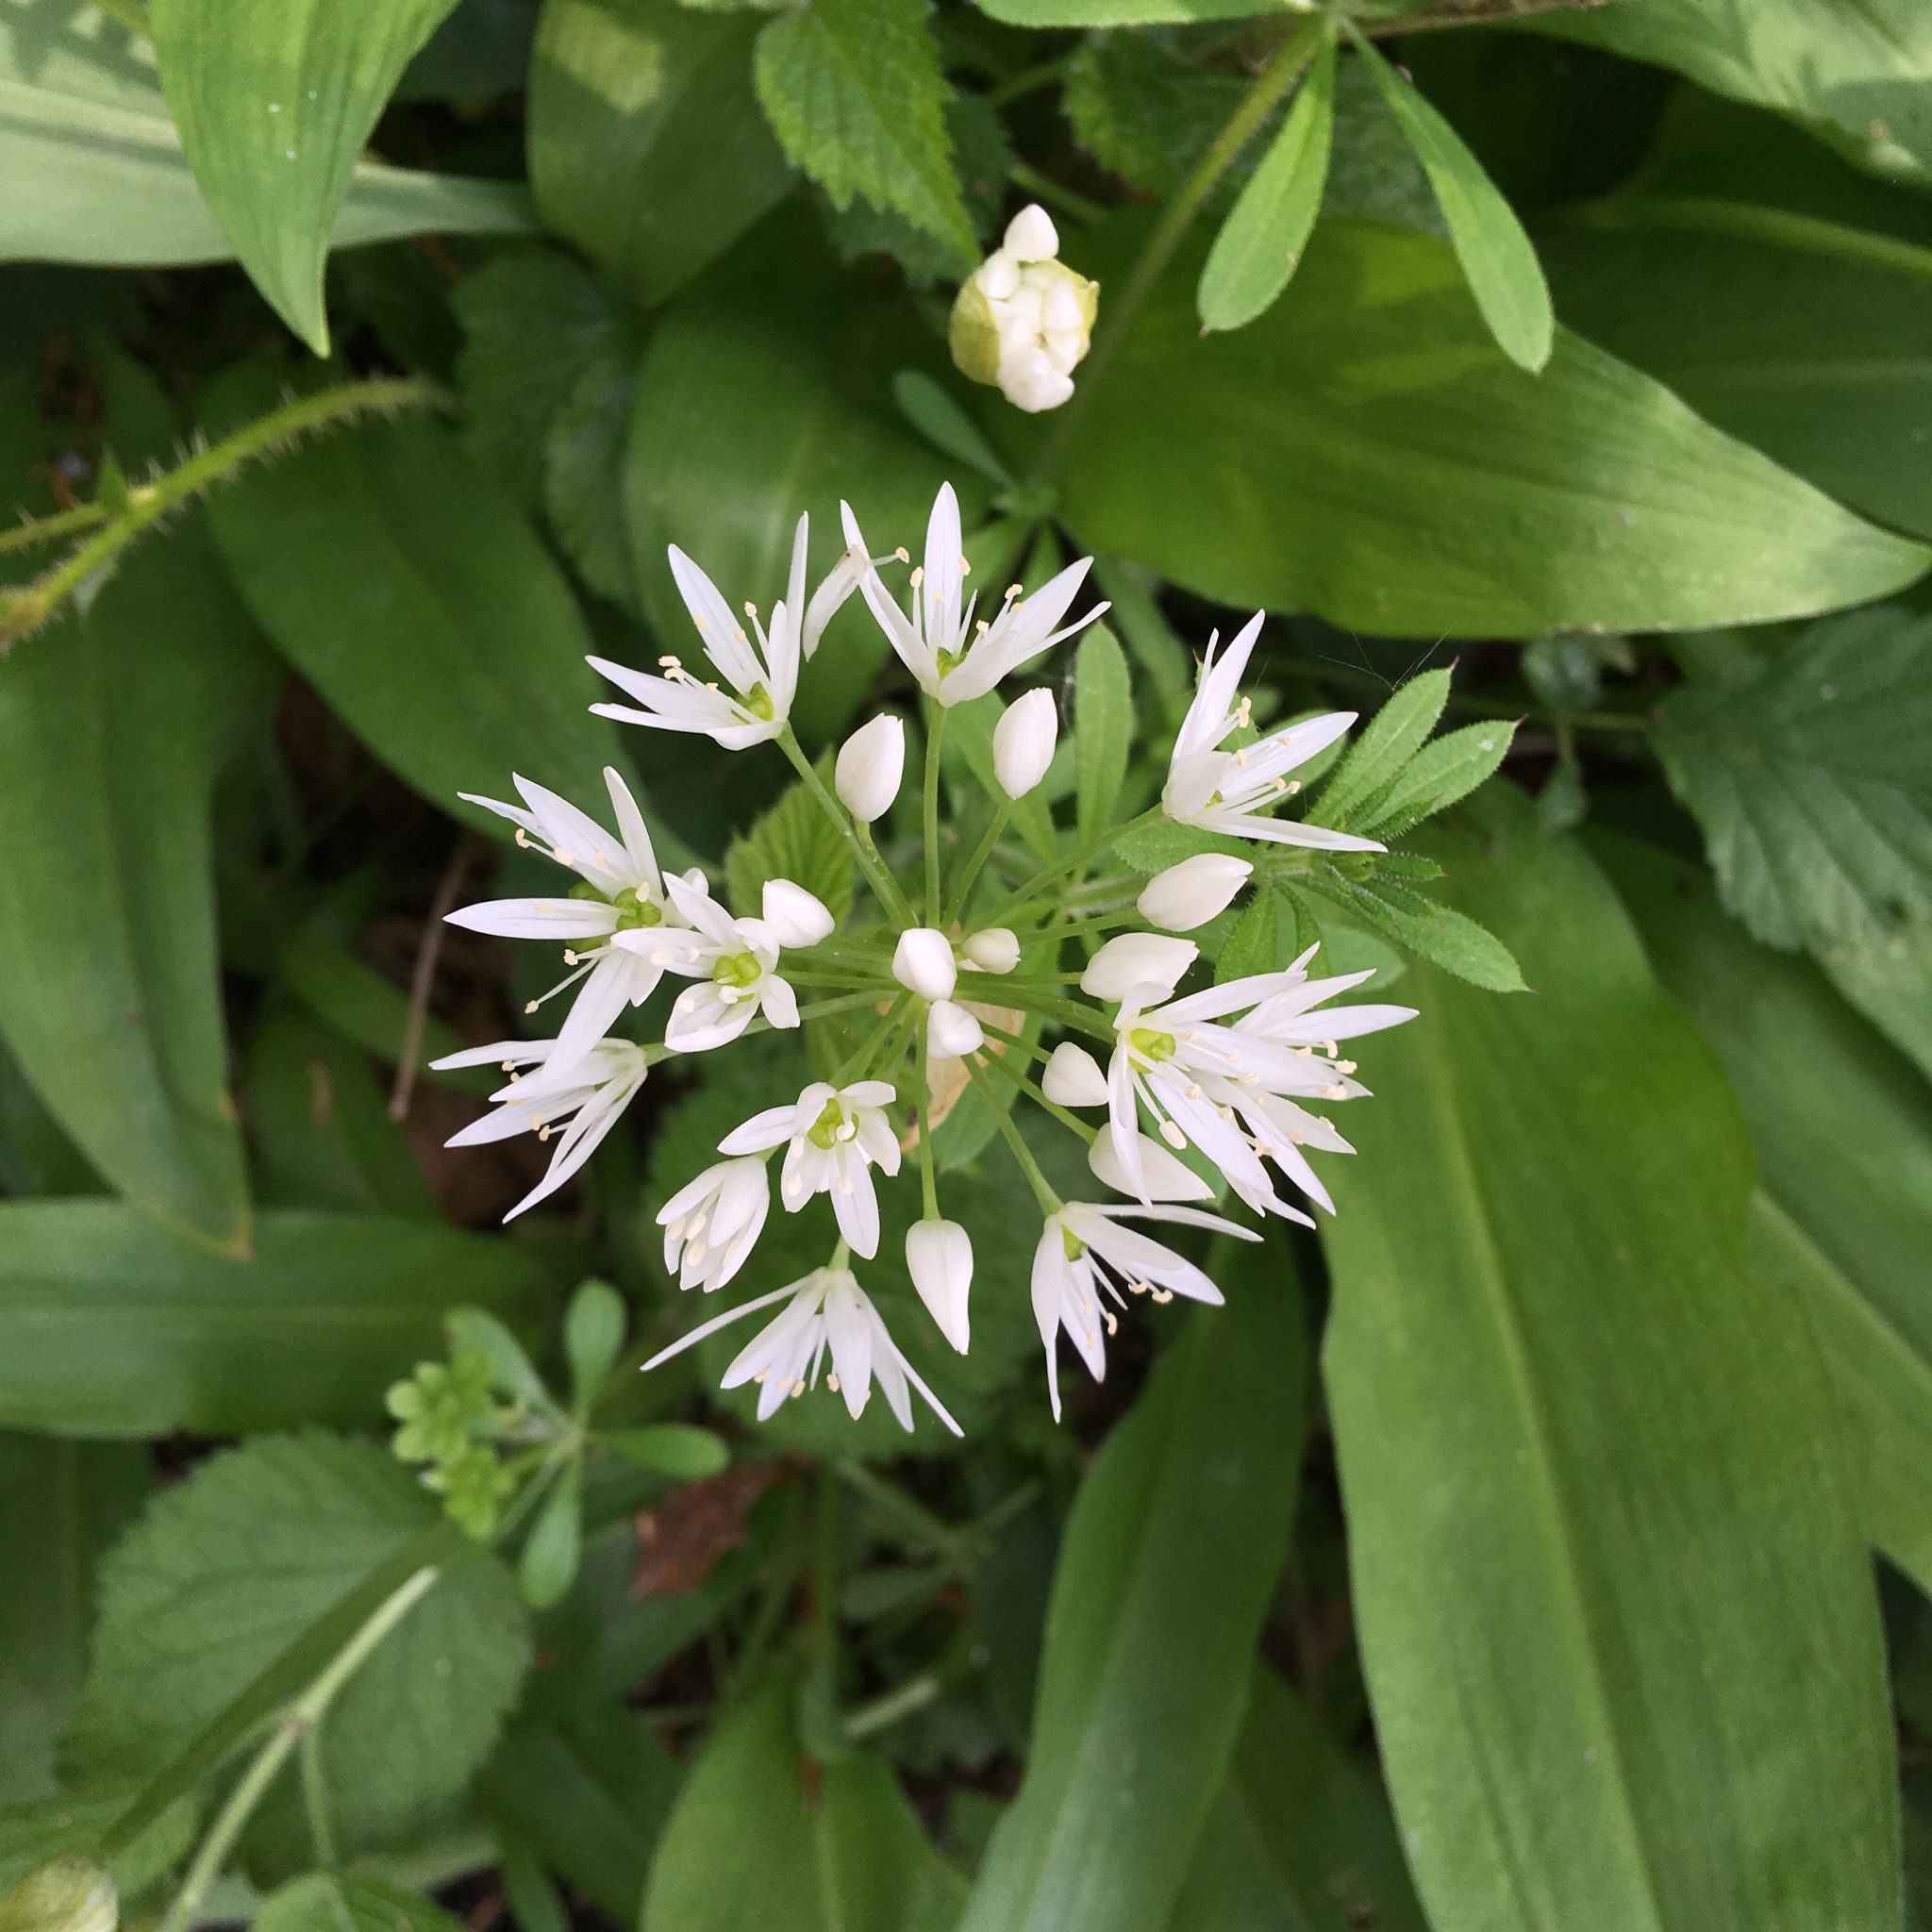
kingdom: Plantae
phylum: Tracheophyta
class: Liliopsida
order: Asparagales
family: Amaryllidaceae
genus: Allium
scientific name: Allium ursinum
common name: Ramsons
